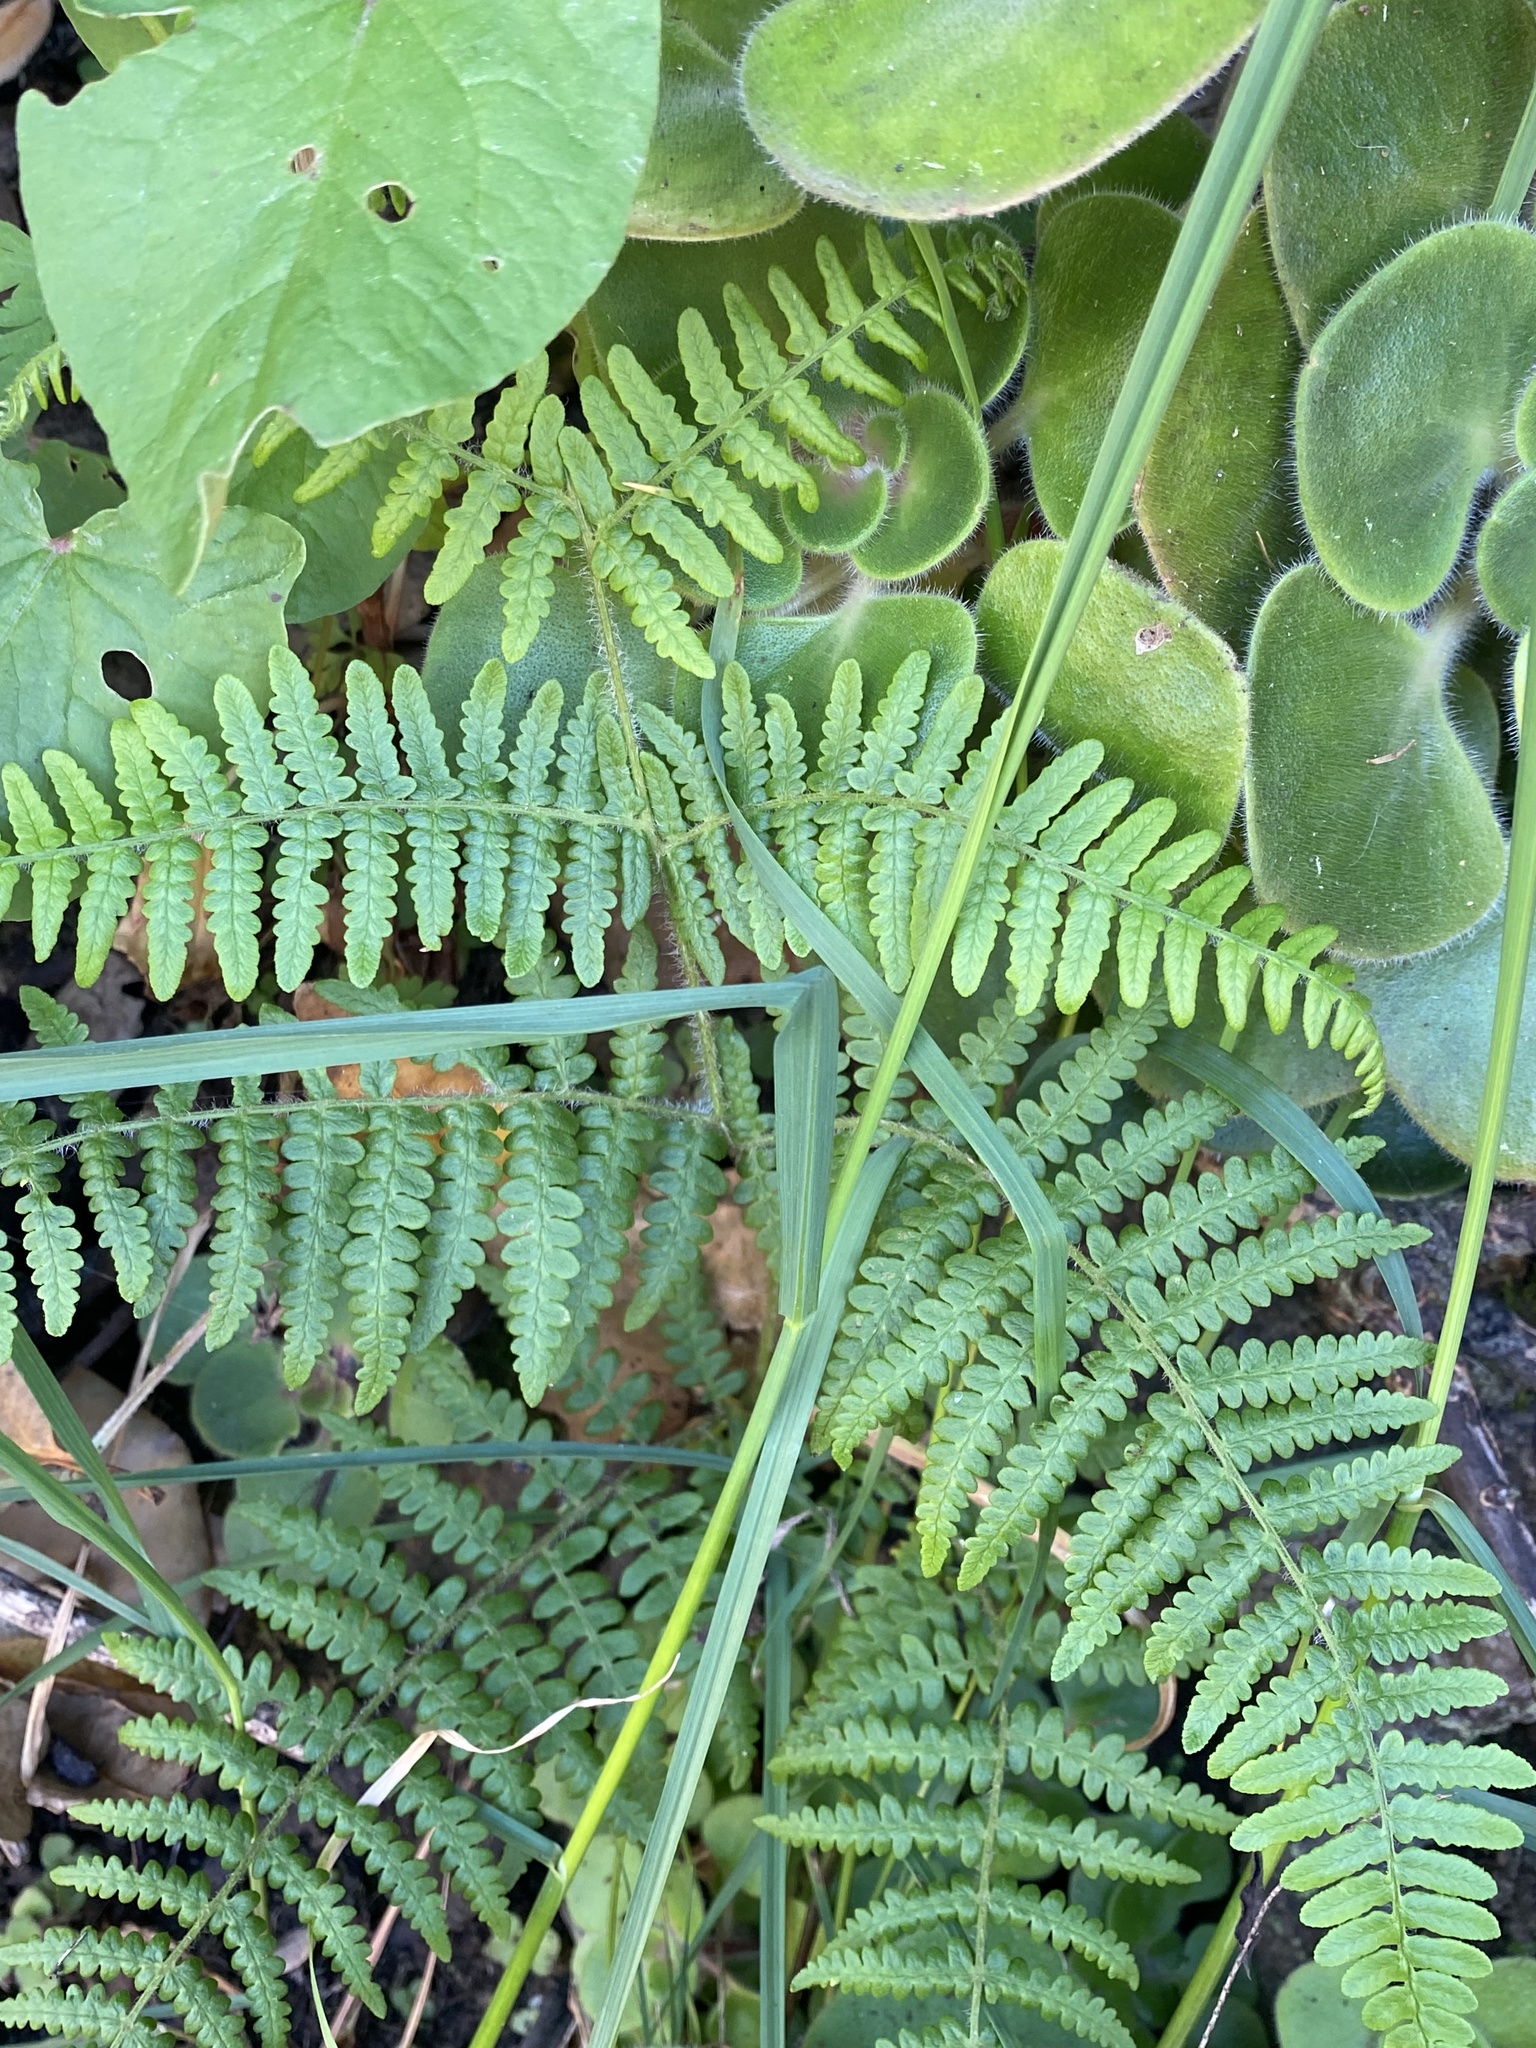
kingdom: Plantae
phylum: Tracheophyta
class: Polypodiopsida
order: Polypodiales
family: Dennstaedtiaceae
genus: Pteridium
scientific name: Pteridium aquilinum
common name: Bracken
